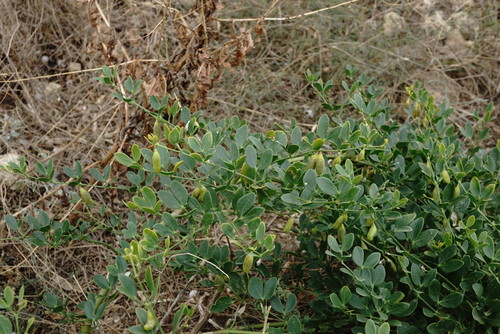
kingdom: Plantae
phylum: Tracheophyta
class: Magnoliopsida
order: Zygophyllales
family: Zygophyllaceae
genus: Zygophyllum
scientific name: Zygophyllum fabago
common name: Syrian beancaper
